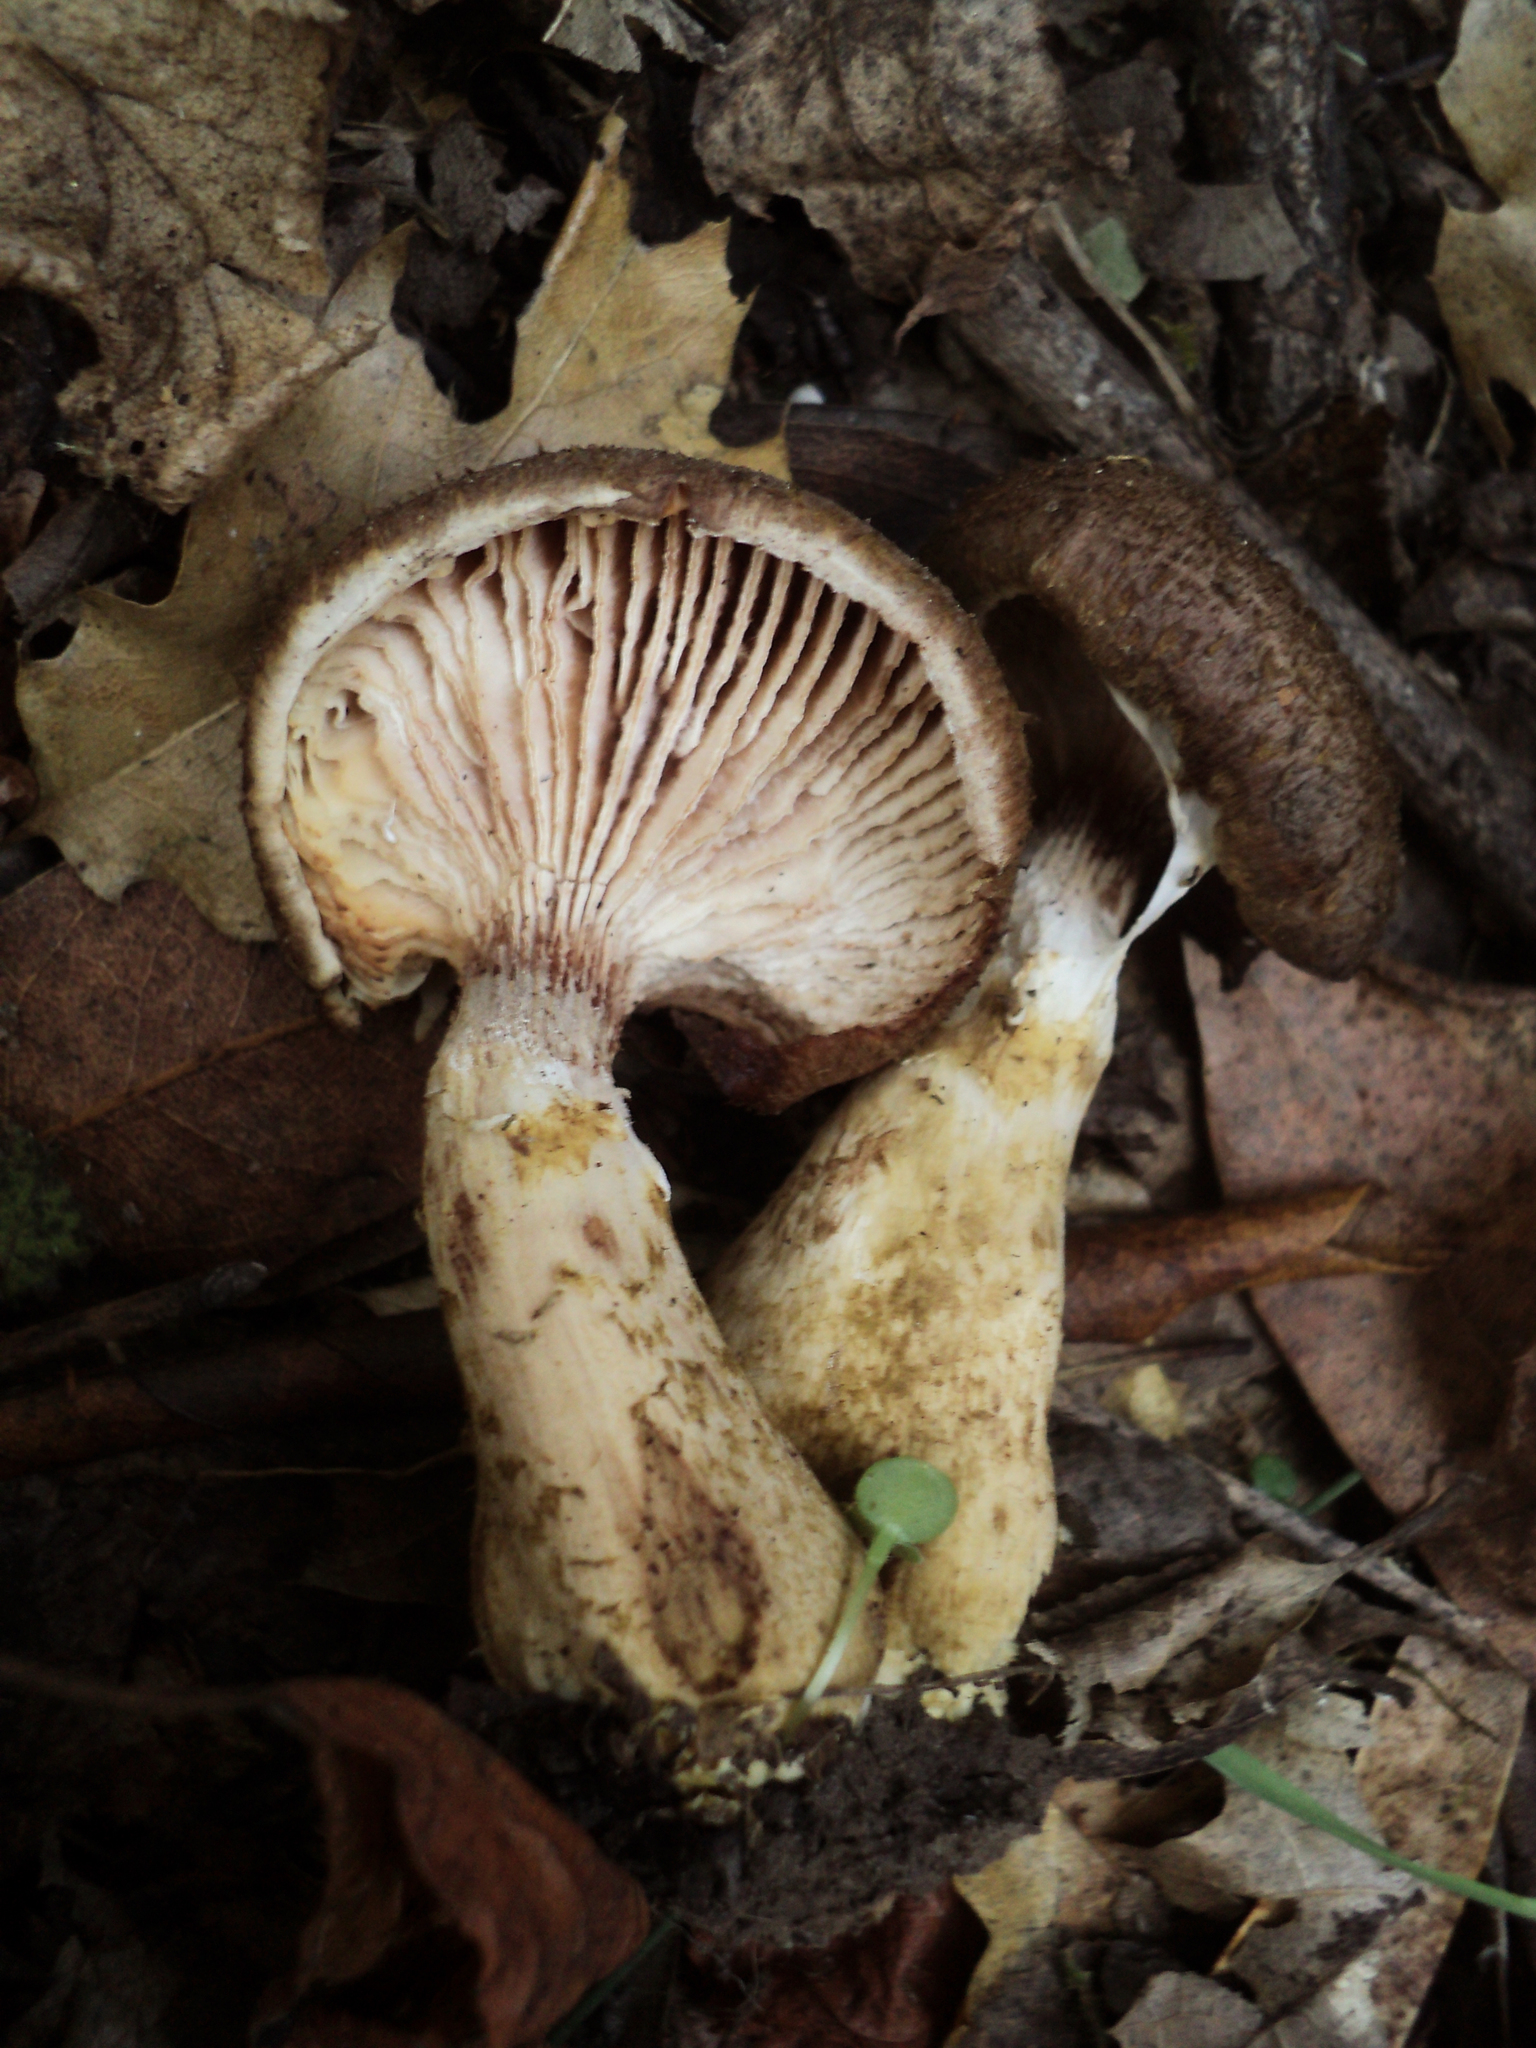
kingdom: Fungi
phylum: Basidiomycota
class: Agaricomycetes
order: Agaricales
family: Physalacriaceae
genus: Armillaria
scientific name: Armillaria sinapina
